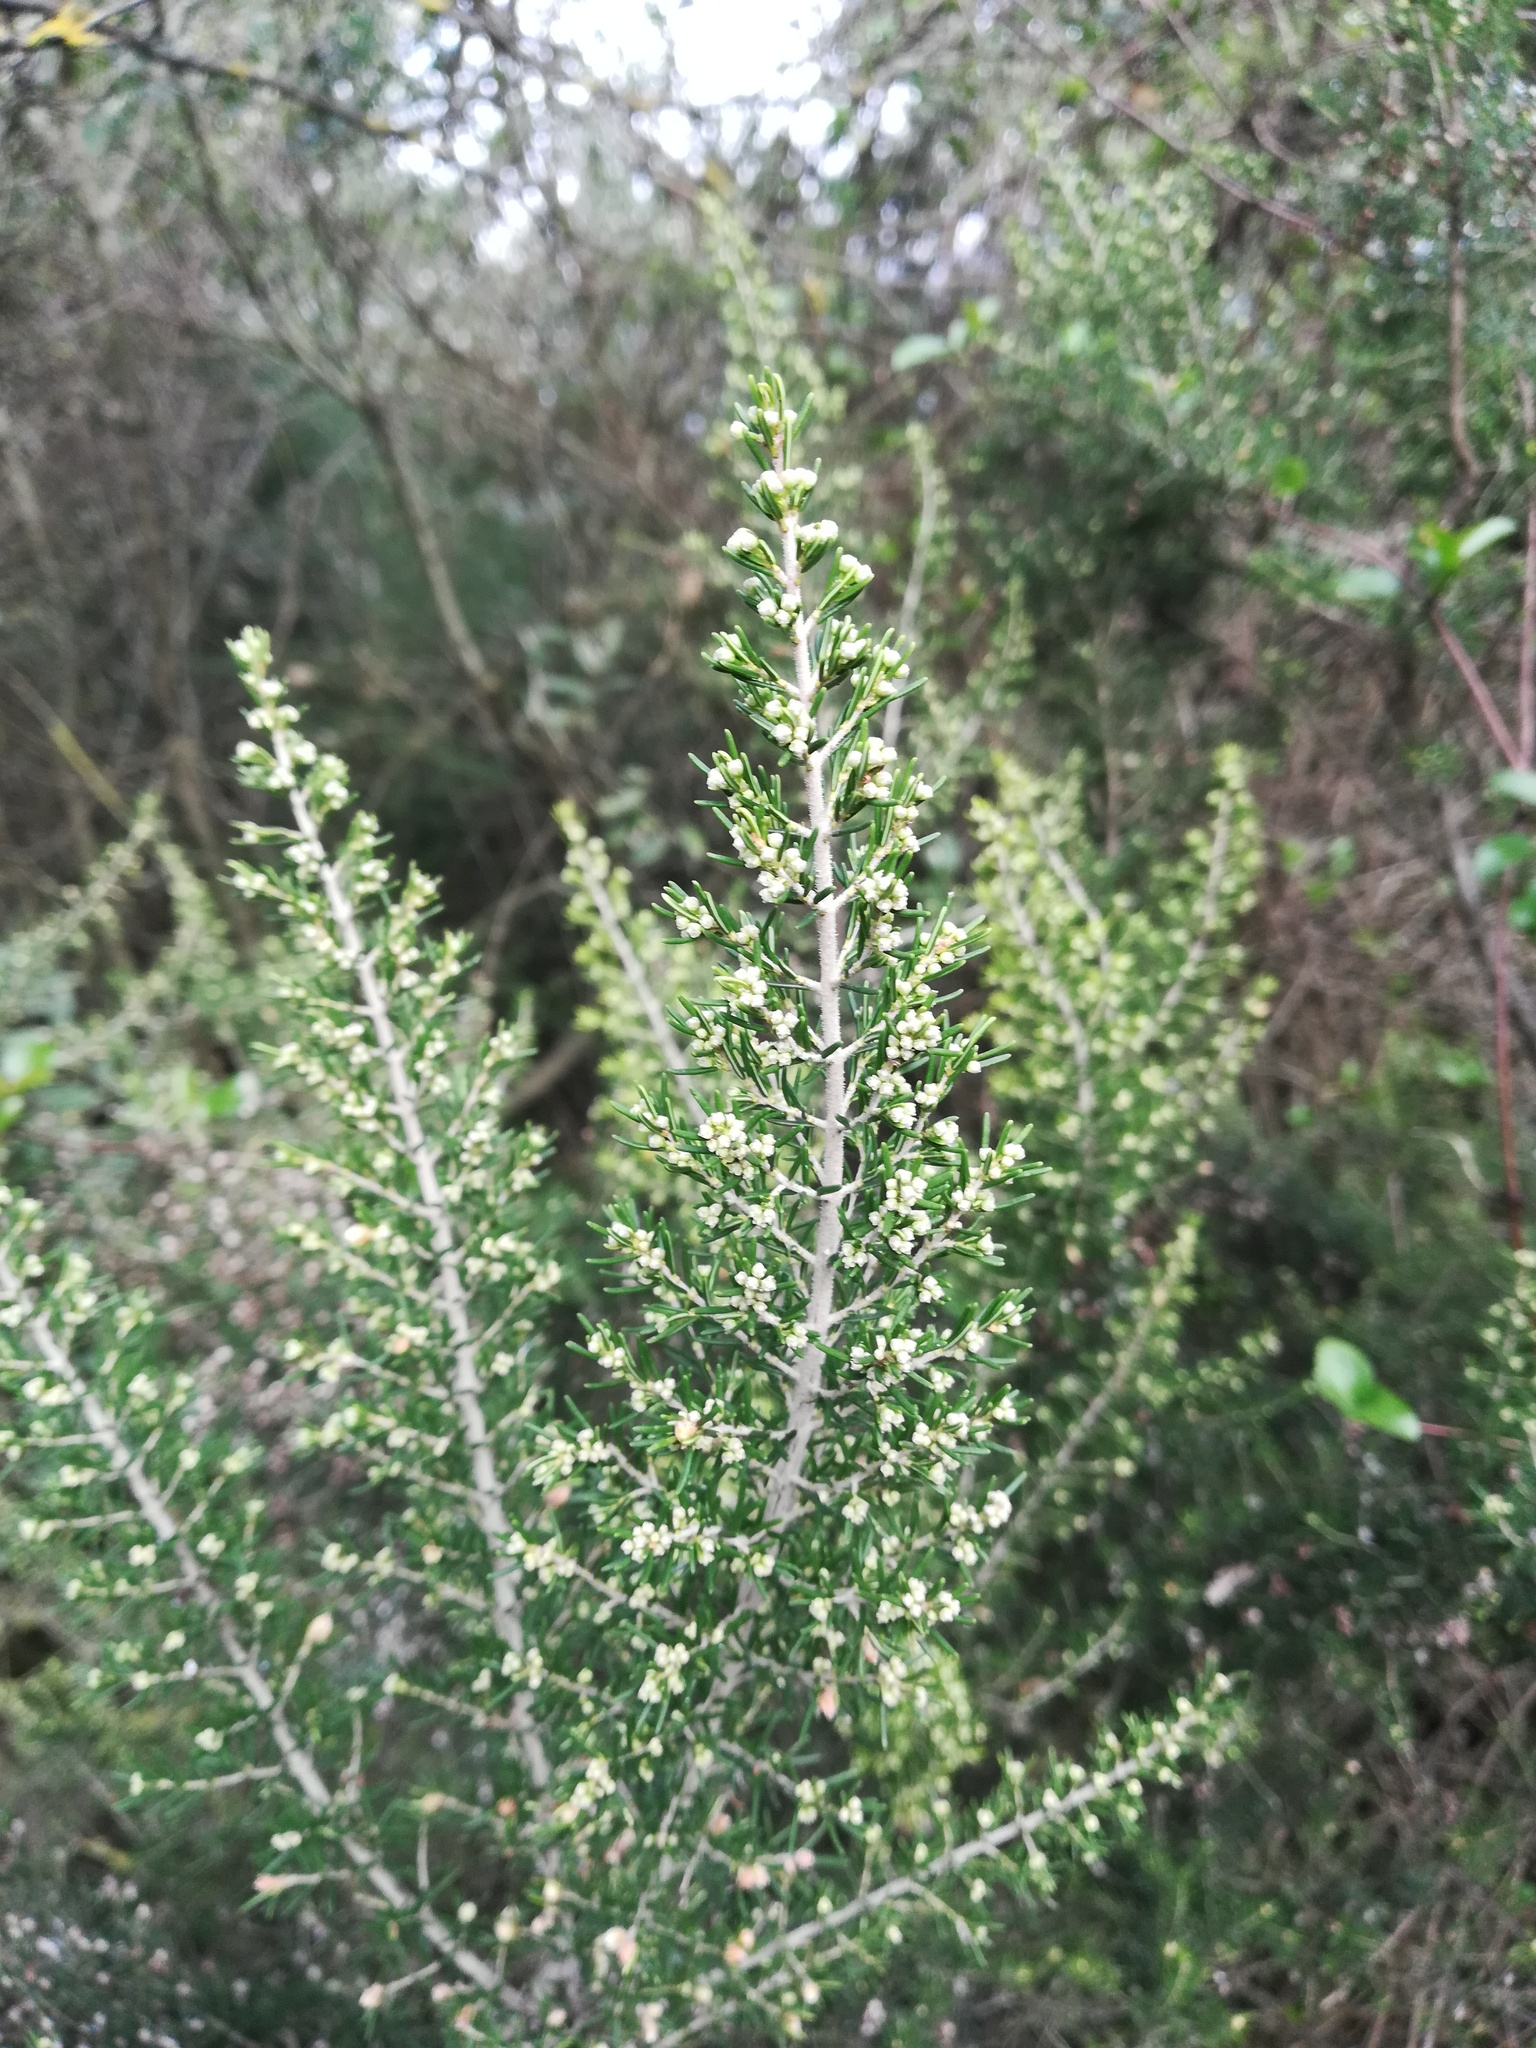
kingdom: Plantae
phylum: Tracheophyta
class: Magnoliopsida
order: Ericales
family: Ericaceae
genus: Erica
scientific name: Erica arborea
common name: Tree heath
